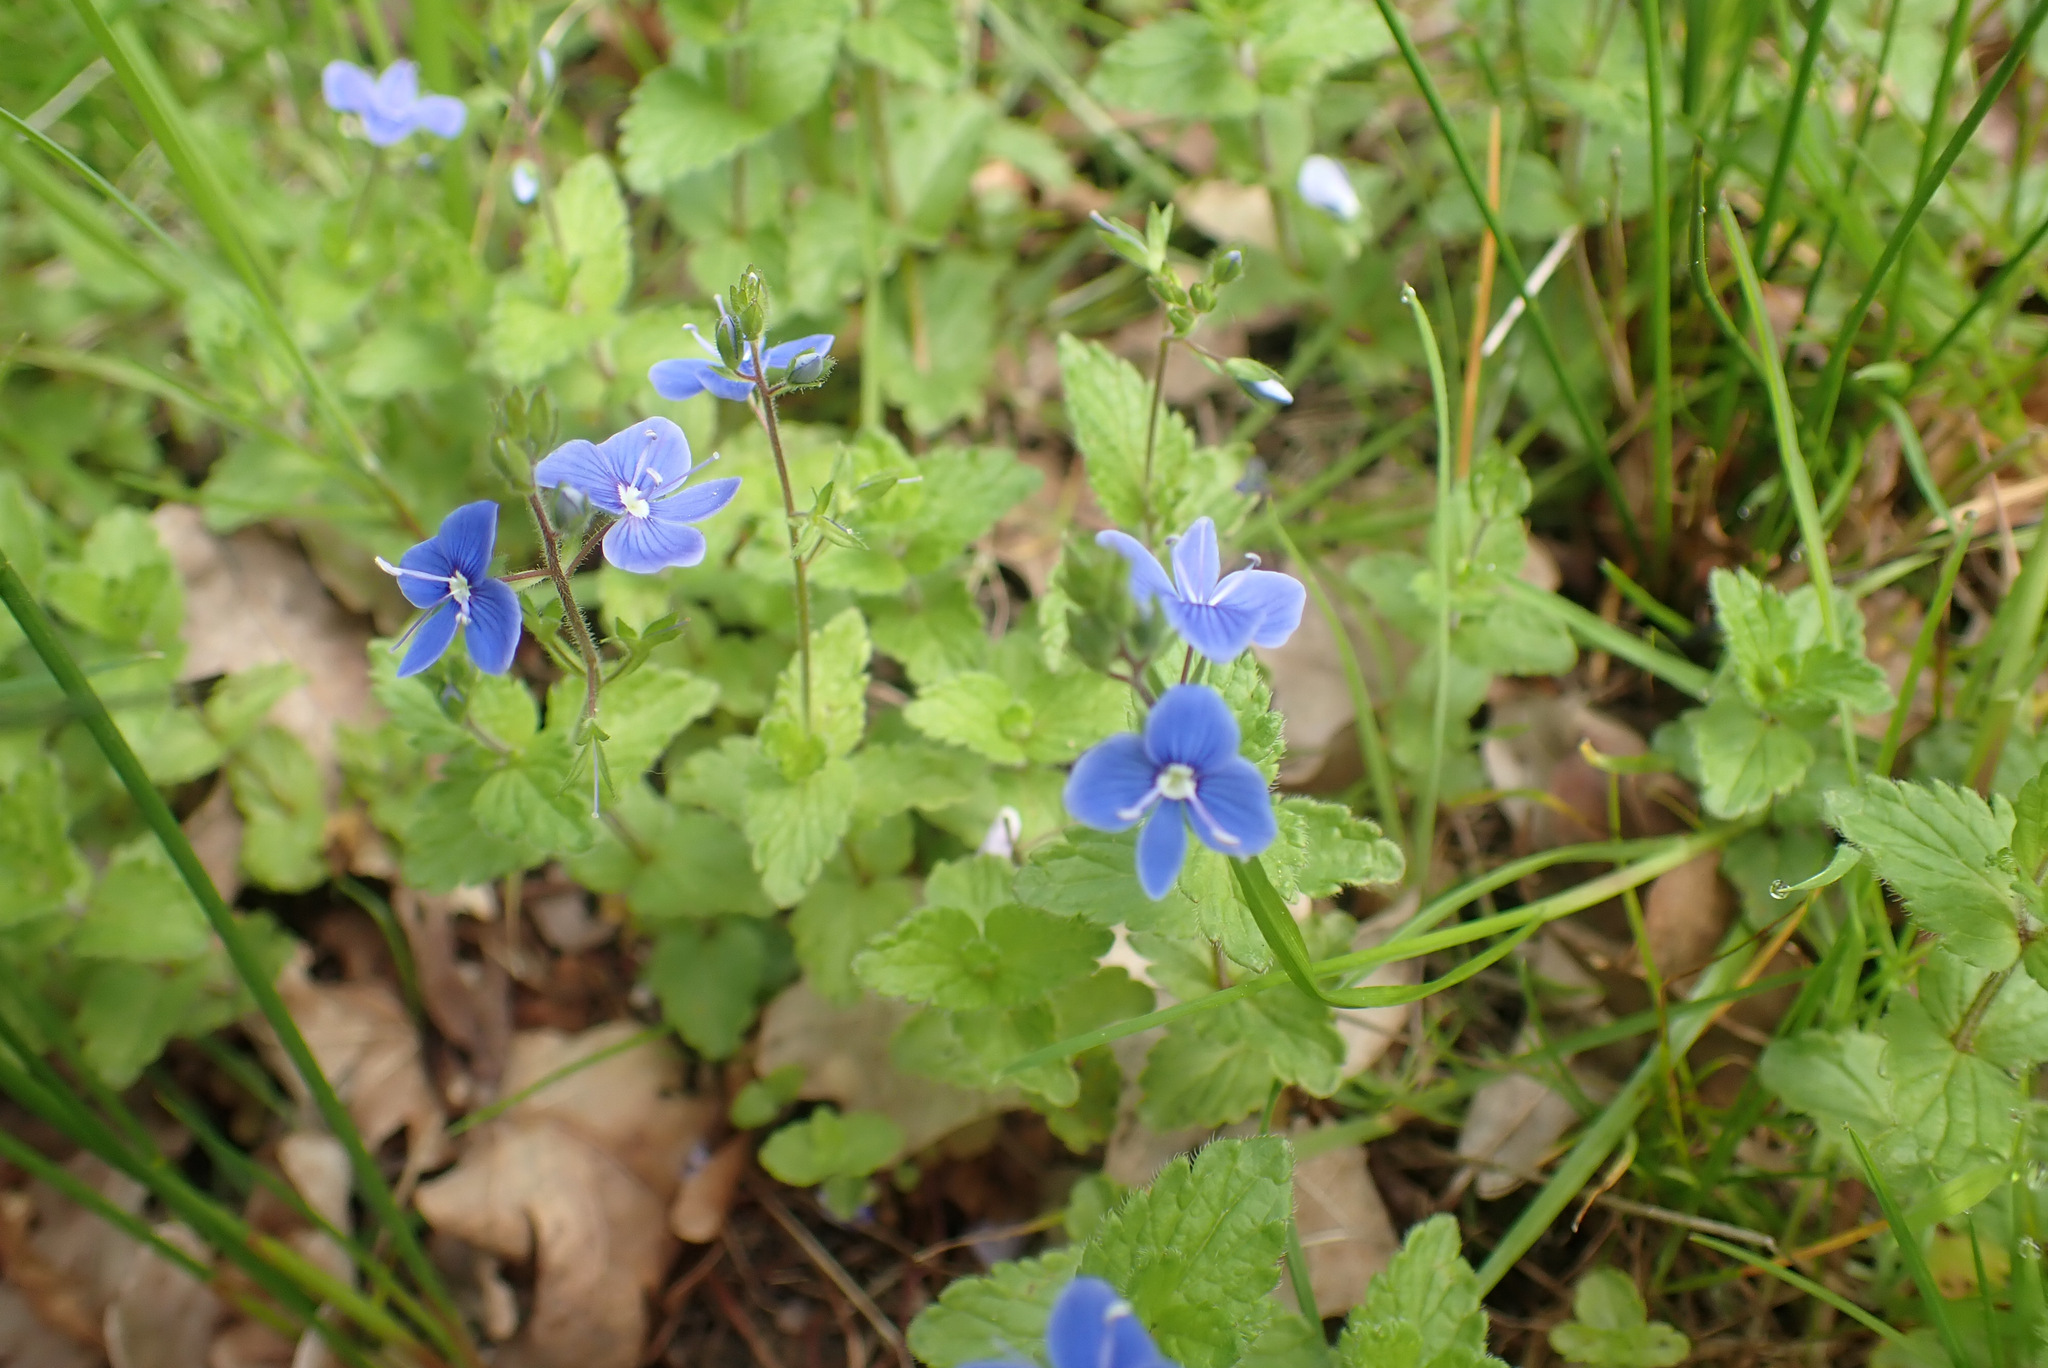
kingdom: Plantae
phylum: Tracheophyta
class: Magnoliopsida
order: Lamiales
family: Plantaginaceae
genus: Veronica
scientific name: Veronica chamaedrys
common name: Germander speedwell
